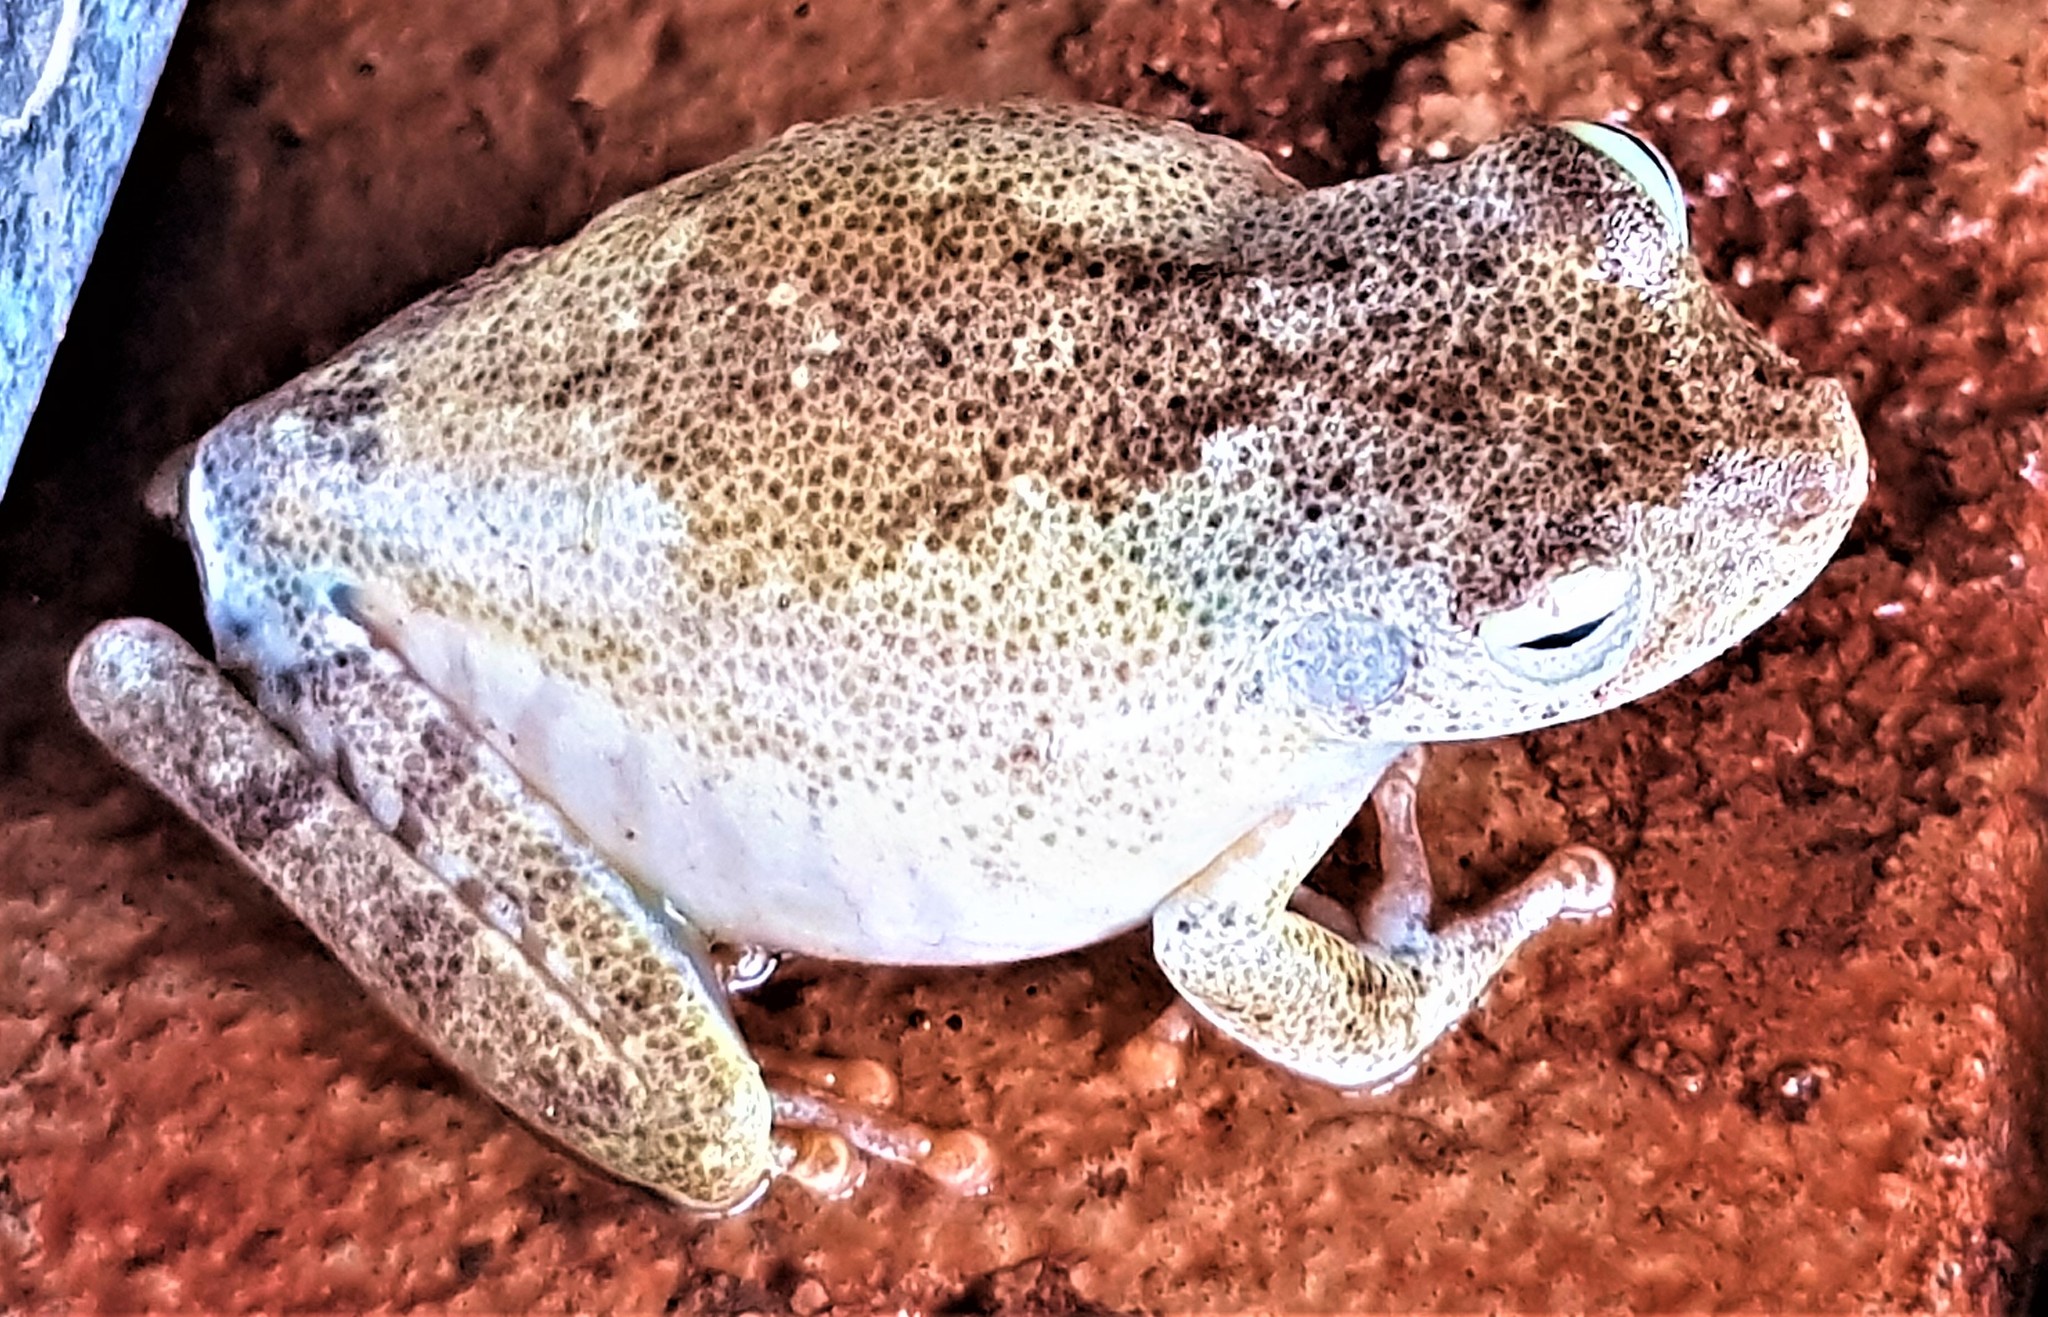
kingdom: Animalia
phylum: Chordata
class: Amphibia
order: Anura
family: Hylidae
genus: Boana
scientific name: Boana xerophylla
